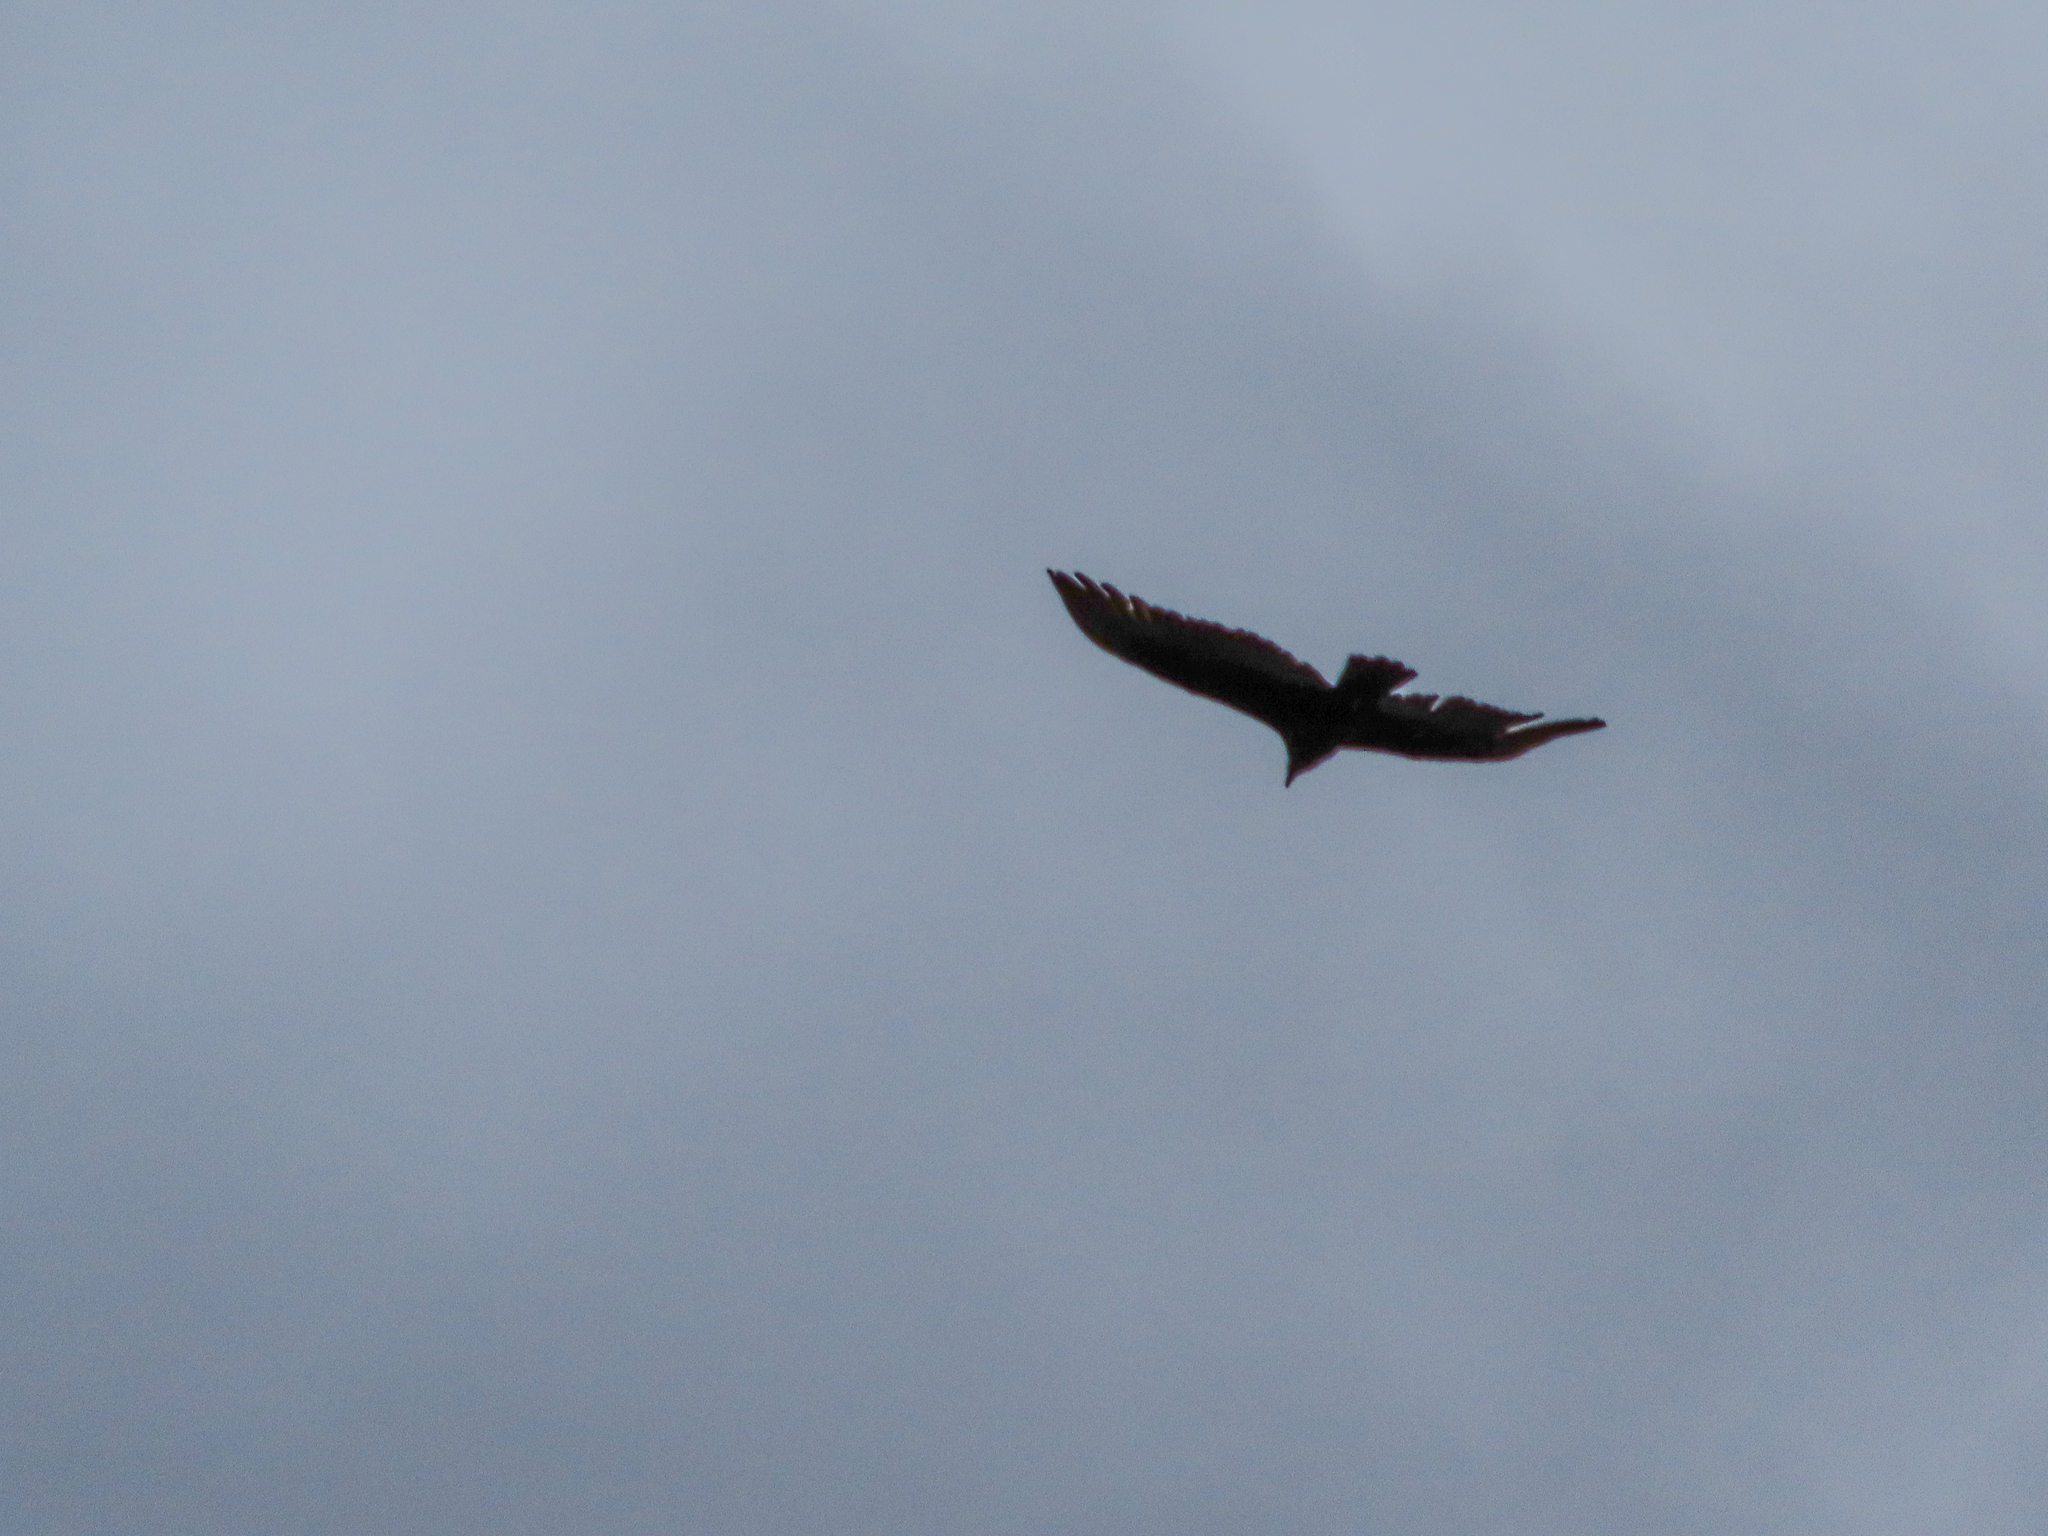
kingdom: Animalia
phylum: Chordata
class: Aves
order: Accipitriformes
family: Cathartidae
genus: Cathartes
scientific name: Cathartes aura
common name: Turkey vulture
